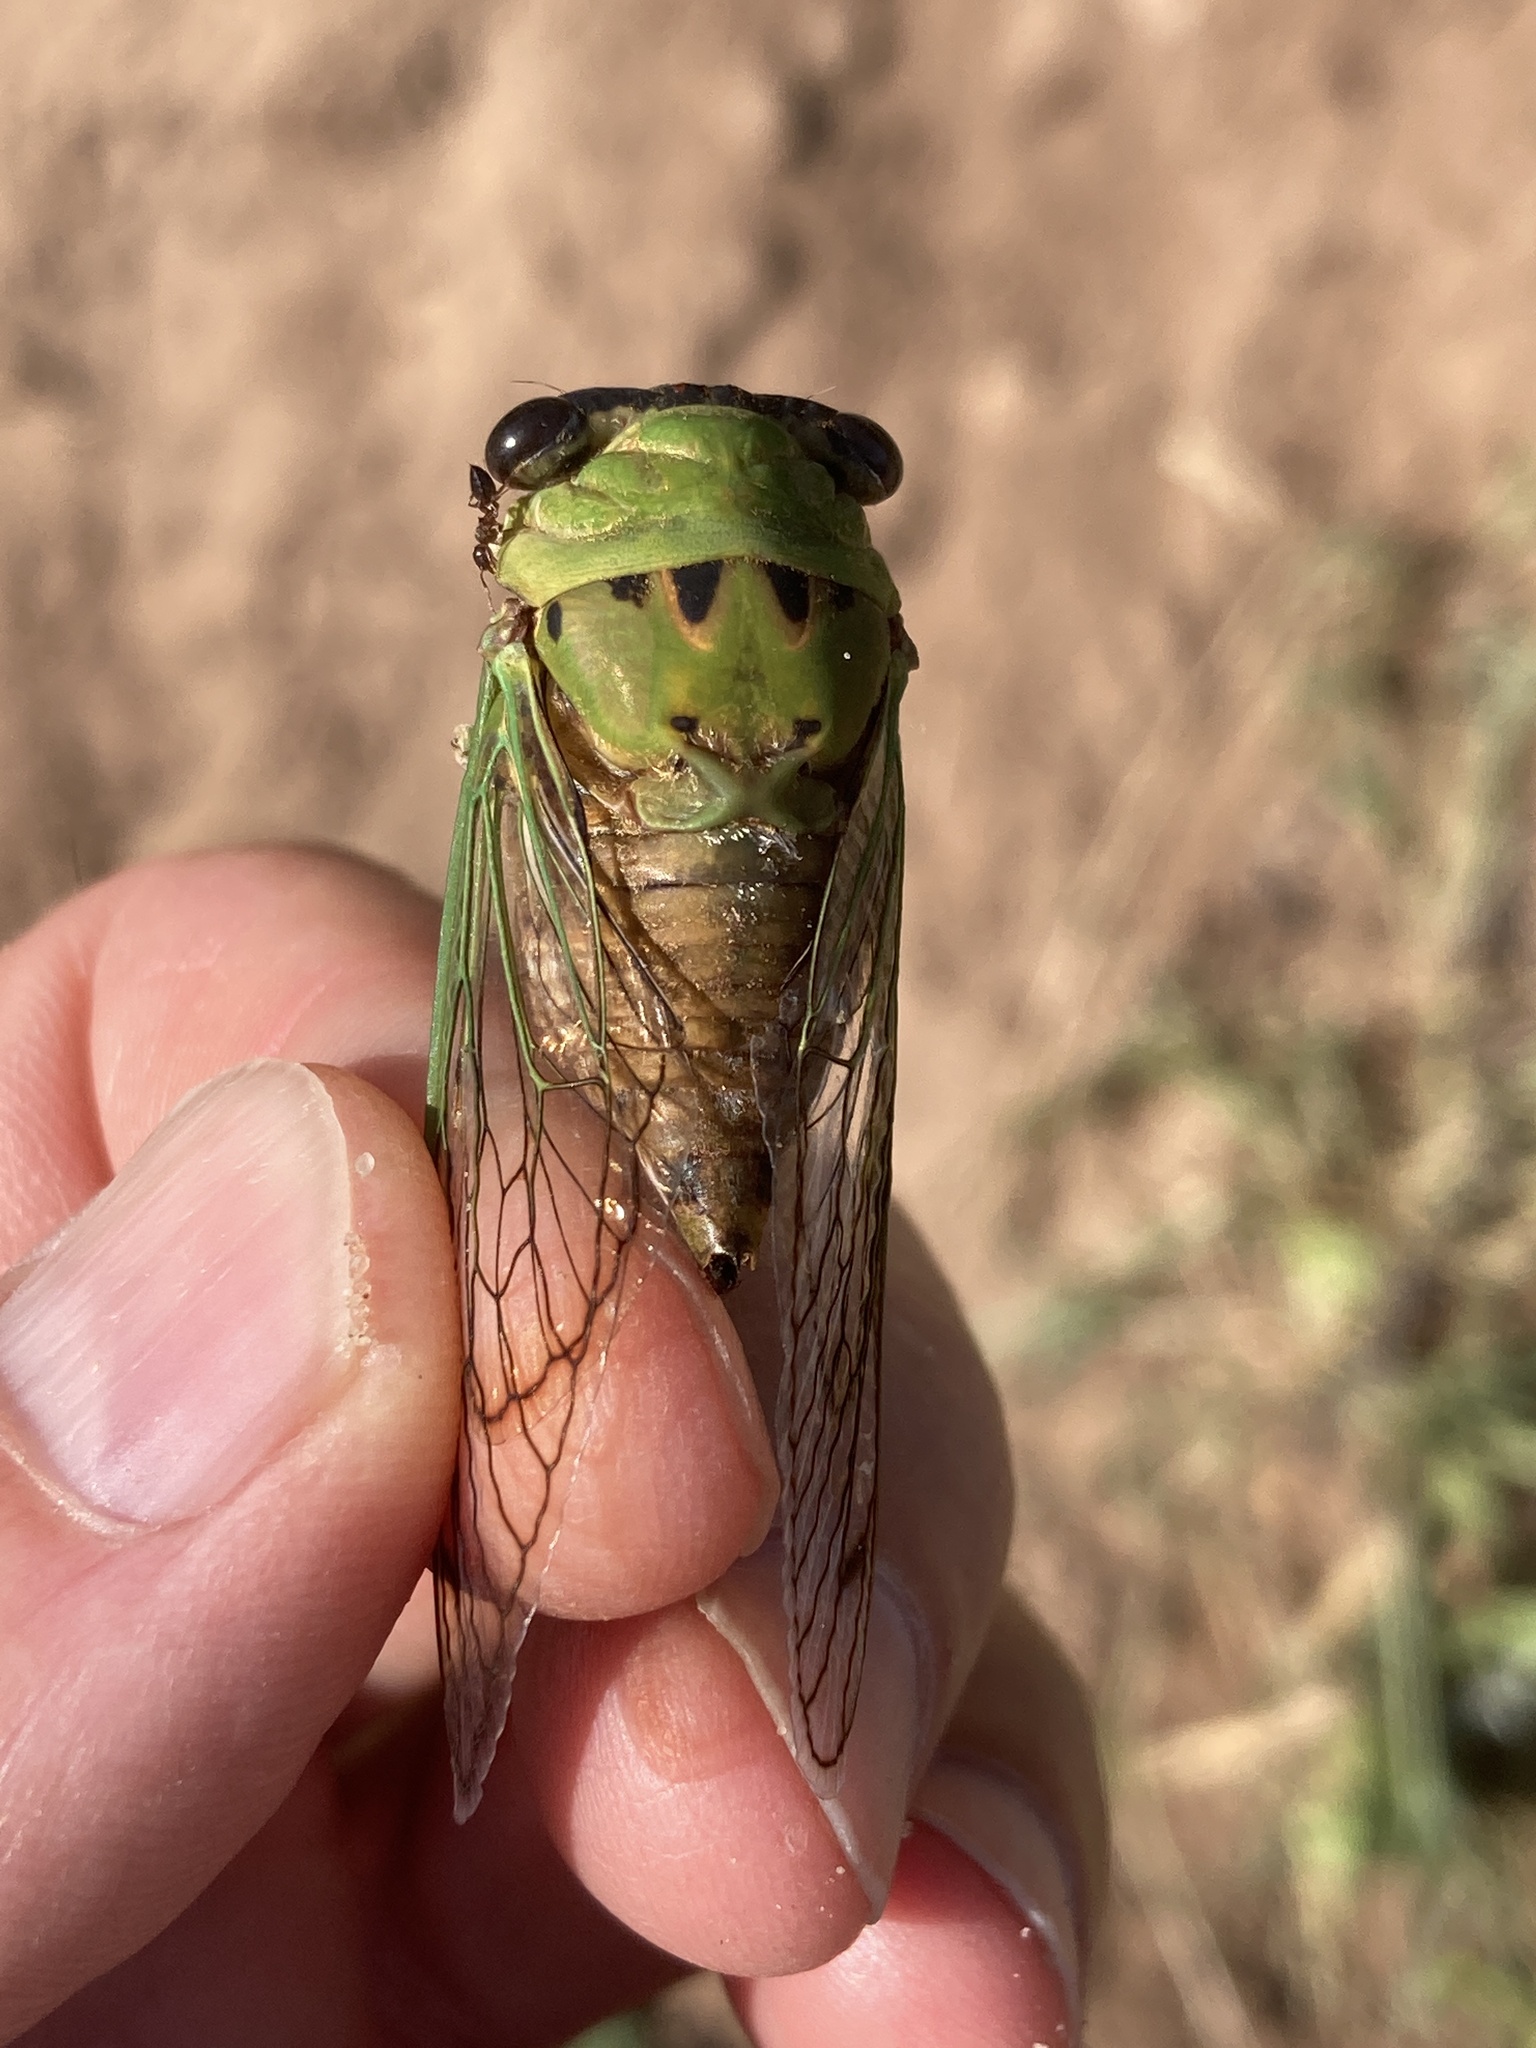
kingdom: Animalia
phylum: Arthropoda
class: Insecta
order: Hemiptera
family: Cicadidae
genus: Neotibicen
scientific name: Neotibicen superbus
